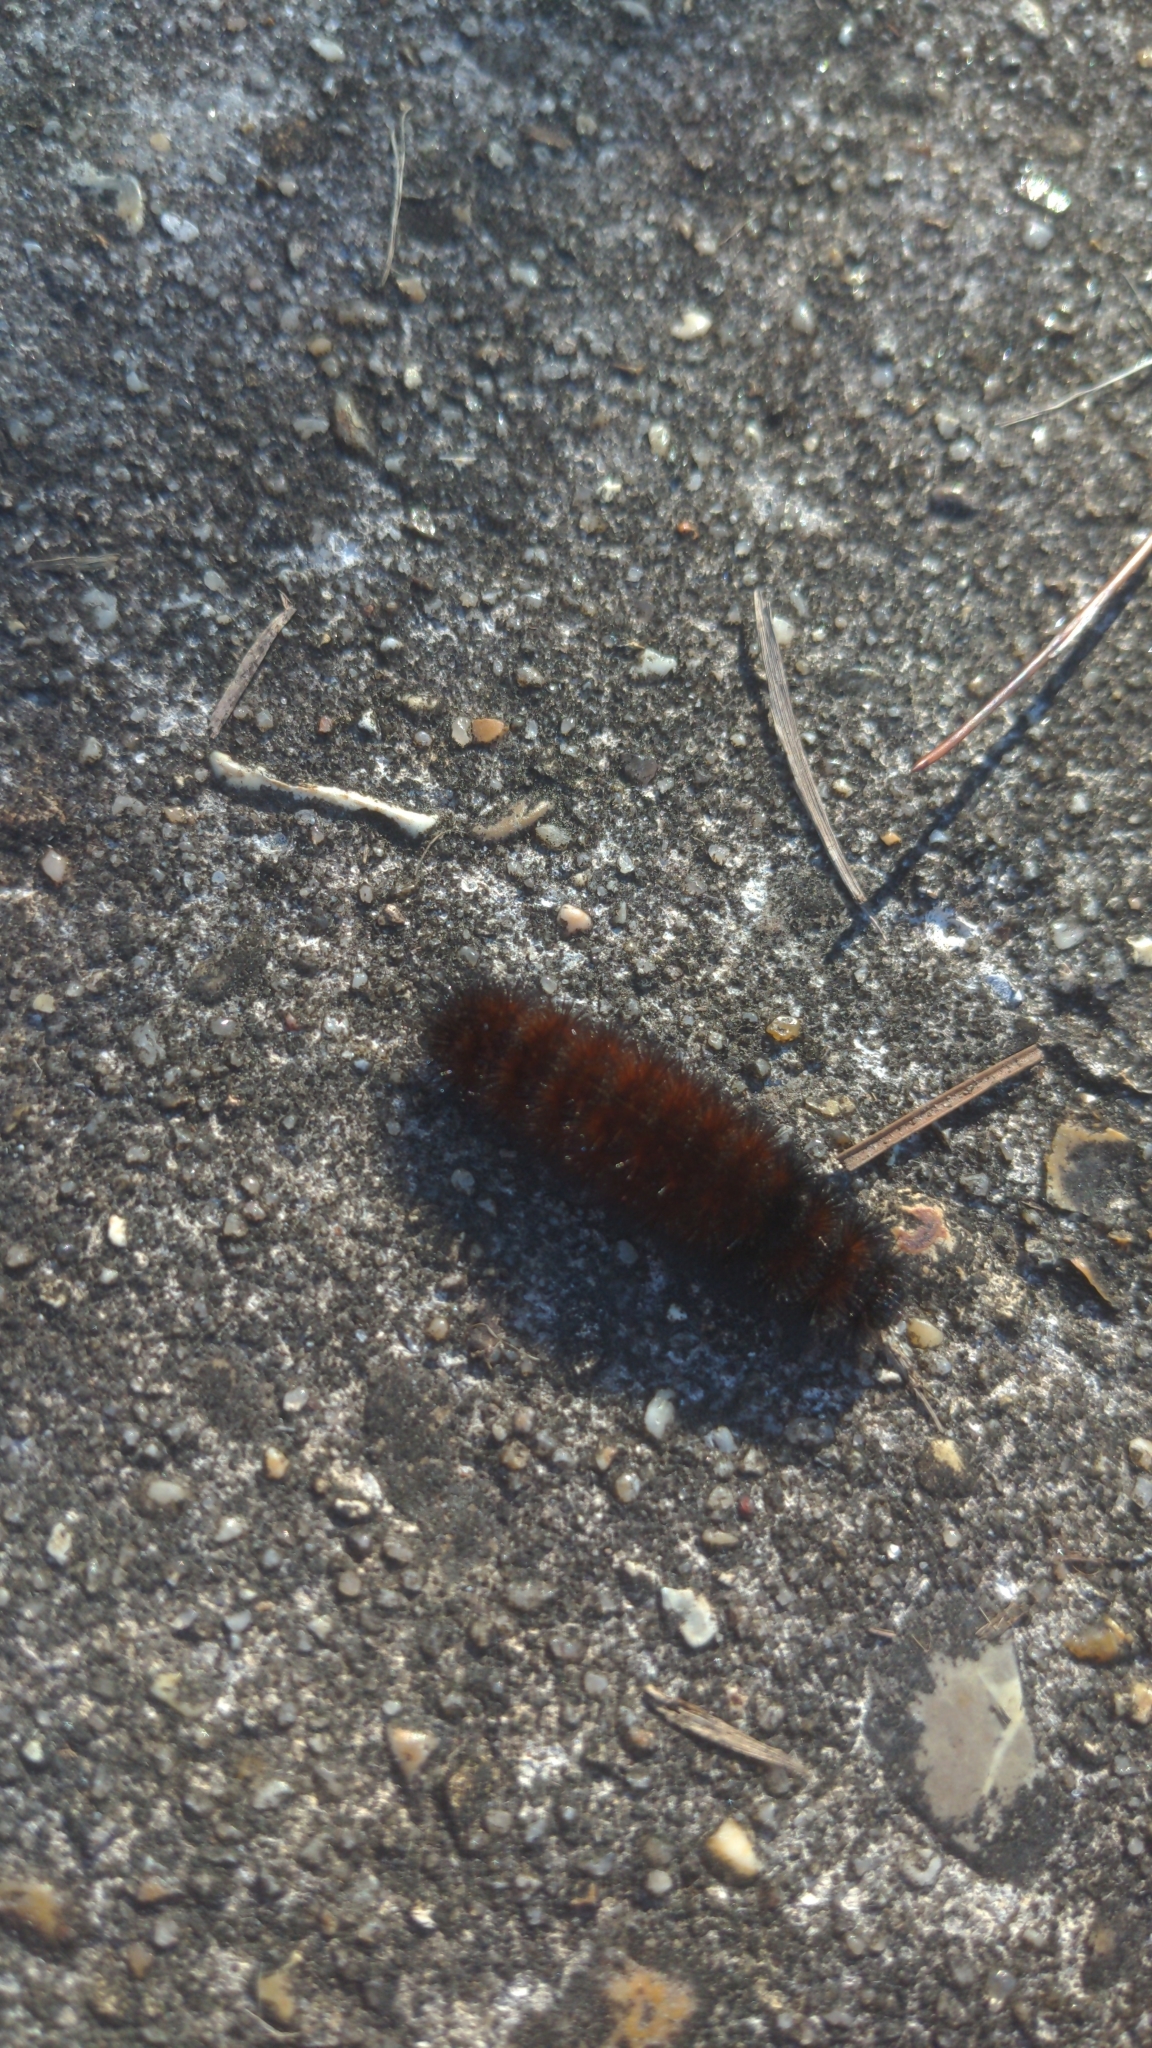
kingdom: Animalia
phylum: Arthropoda
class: Insecta
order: Lepidoptera
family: Erebidae
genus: Pyrrharctia
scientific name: Pyrrharctia isabella
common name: Isabella tiger moth
